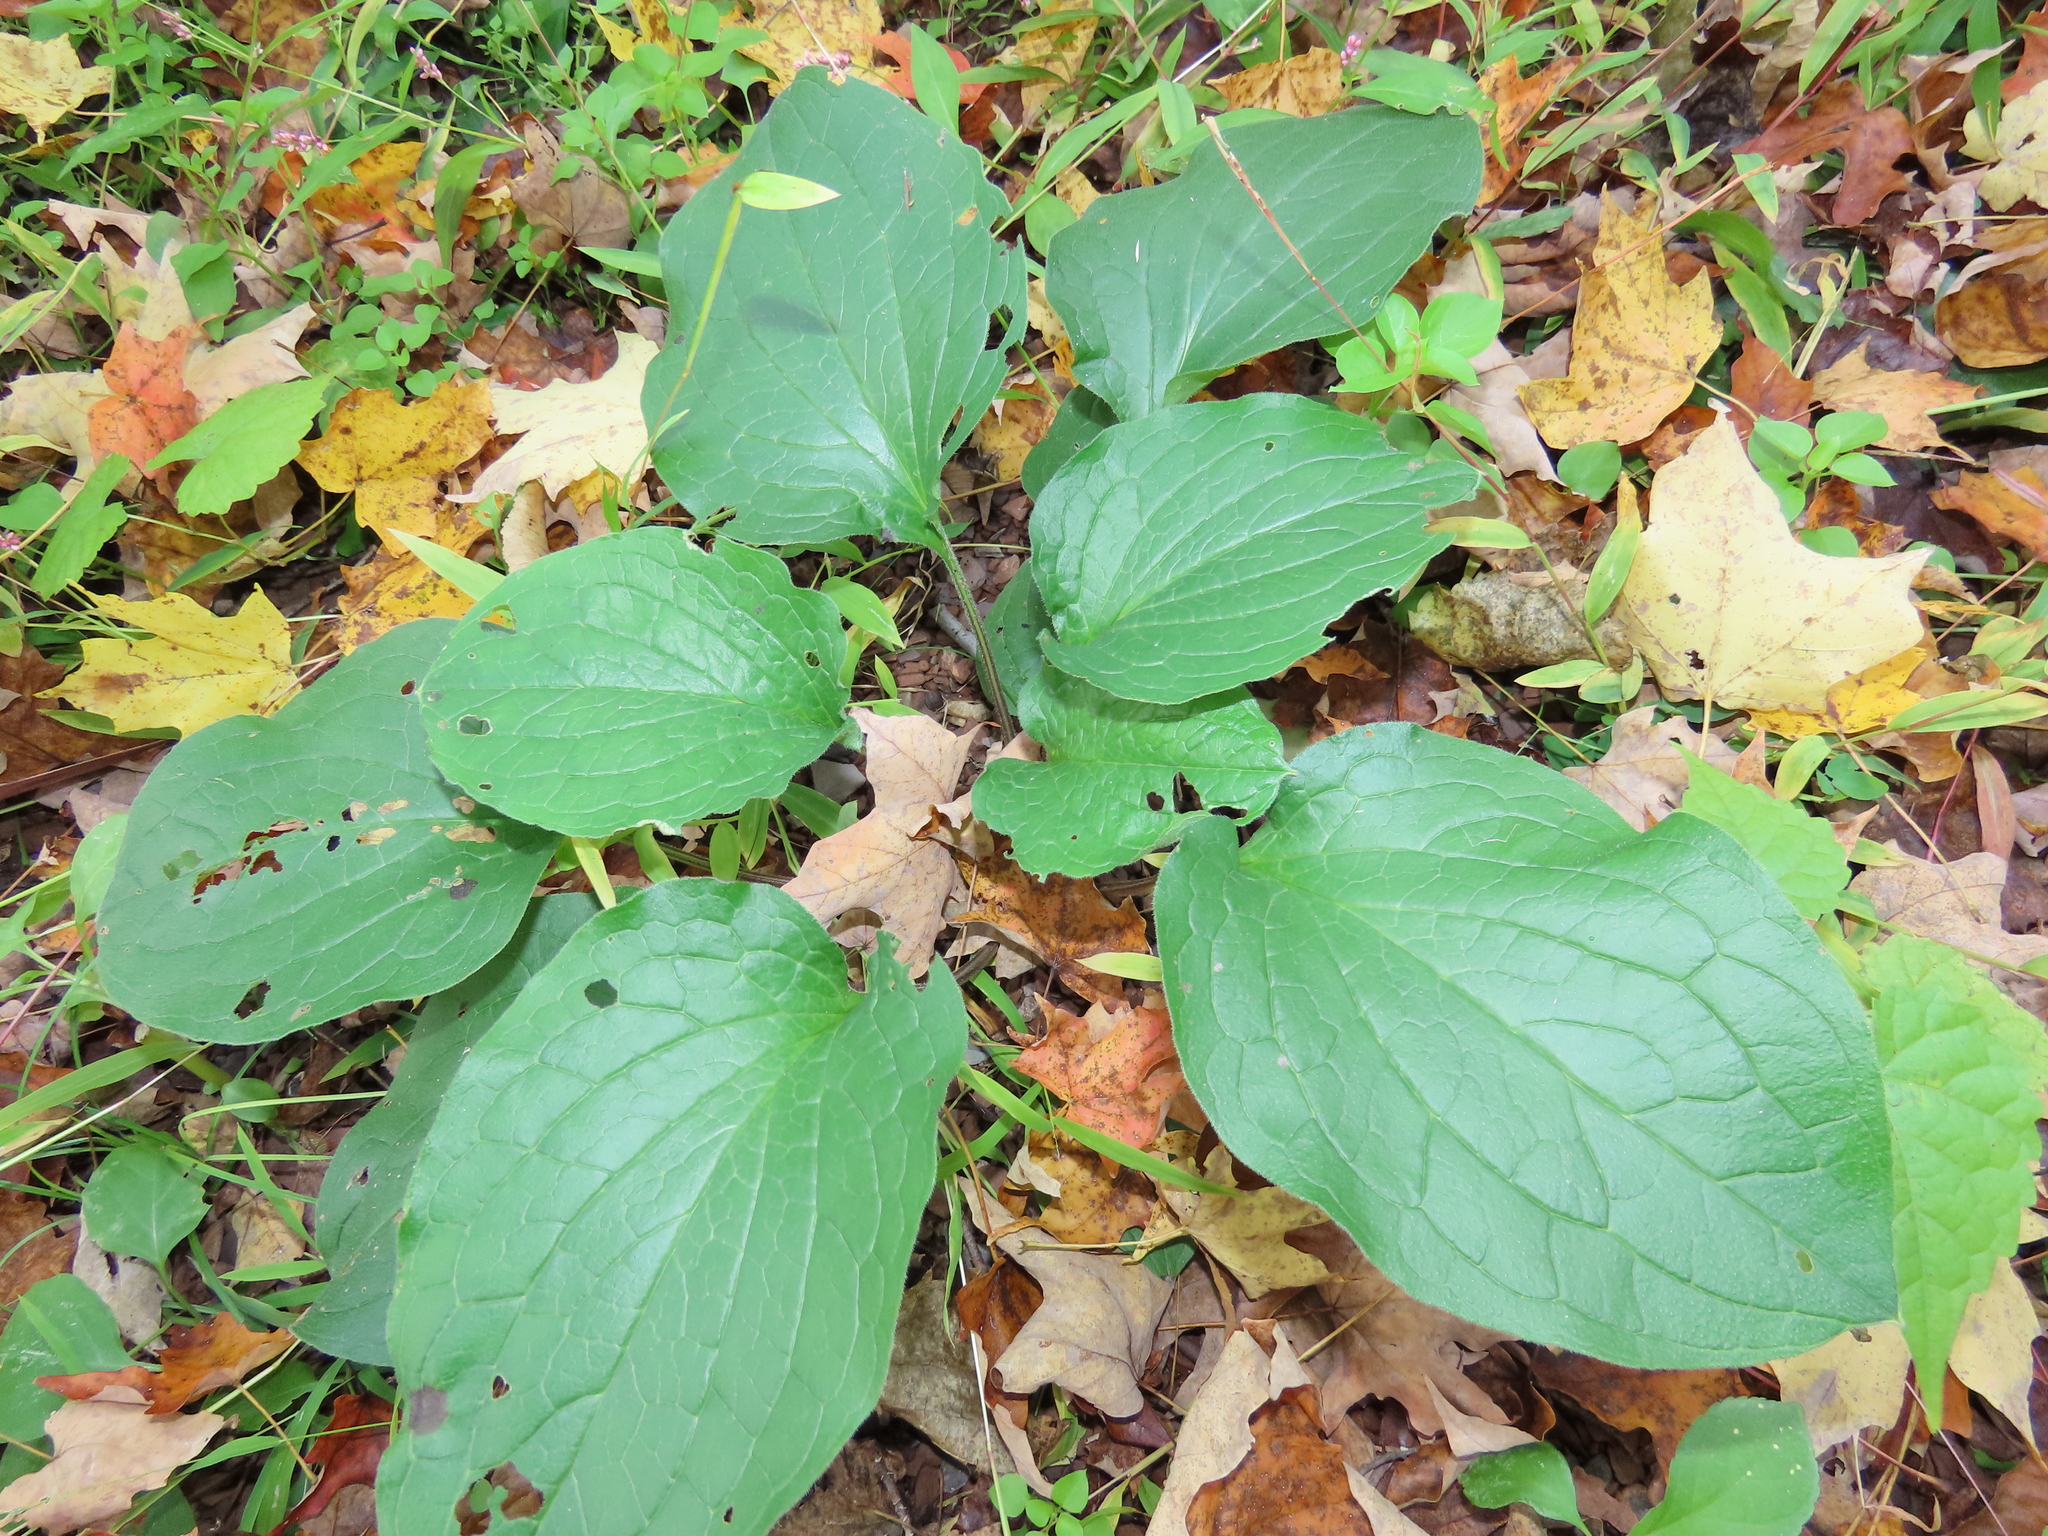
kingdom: Plantae
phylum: Tracheophyta
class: Magnoliopsida
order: Boraginales
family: Boraginaceae
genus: Hackelia
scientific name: Hackelia virginiana
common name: Beggar's-lice
